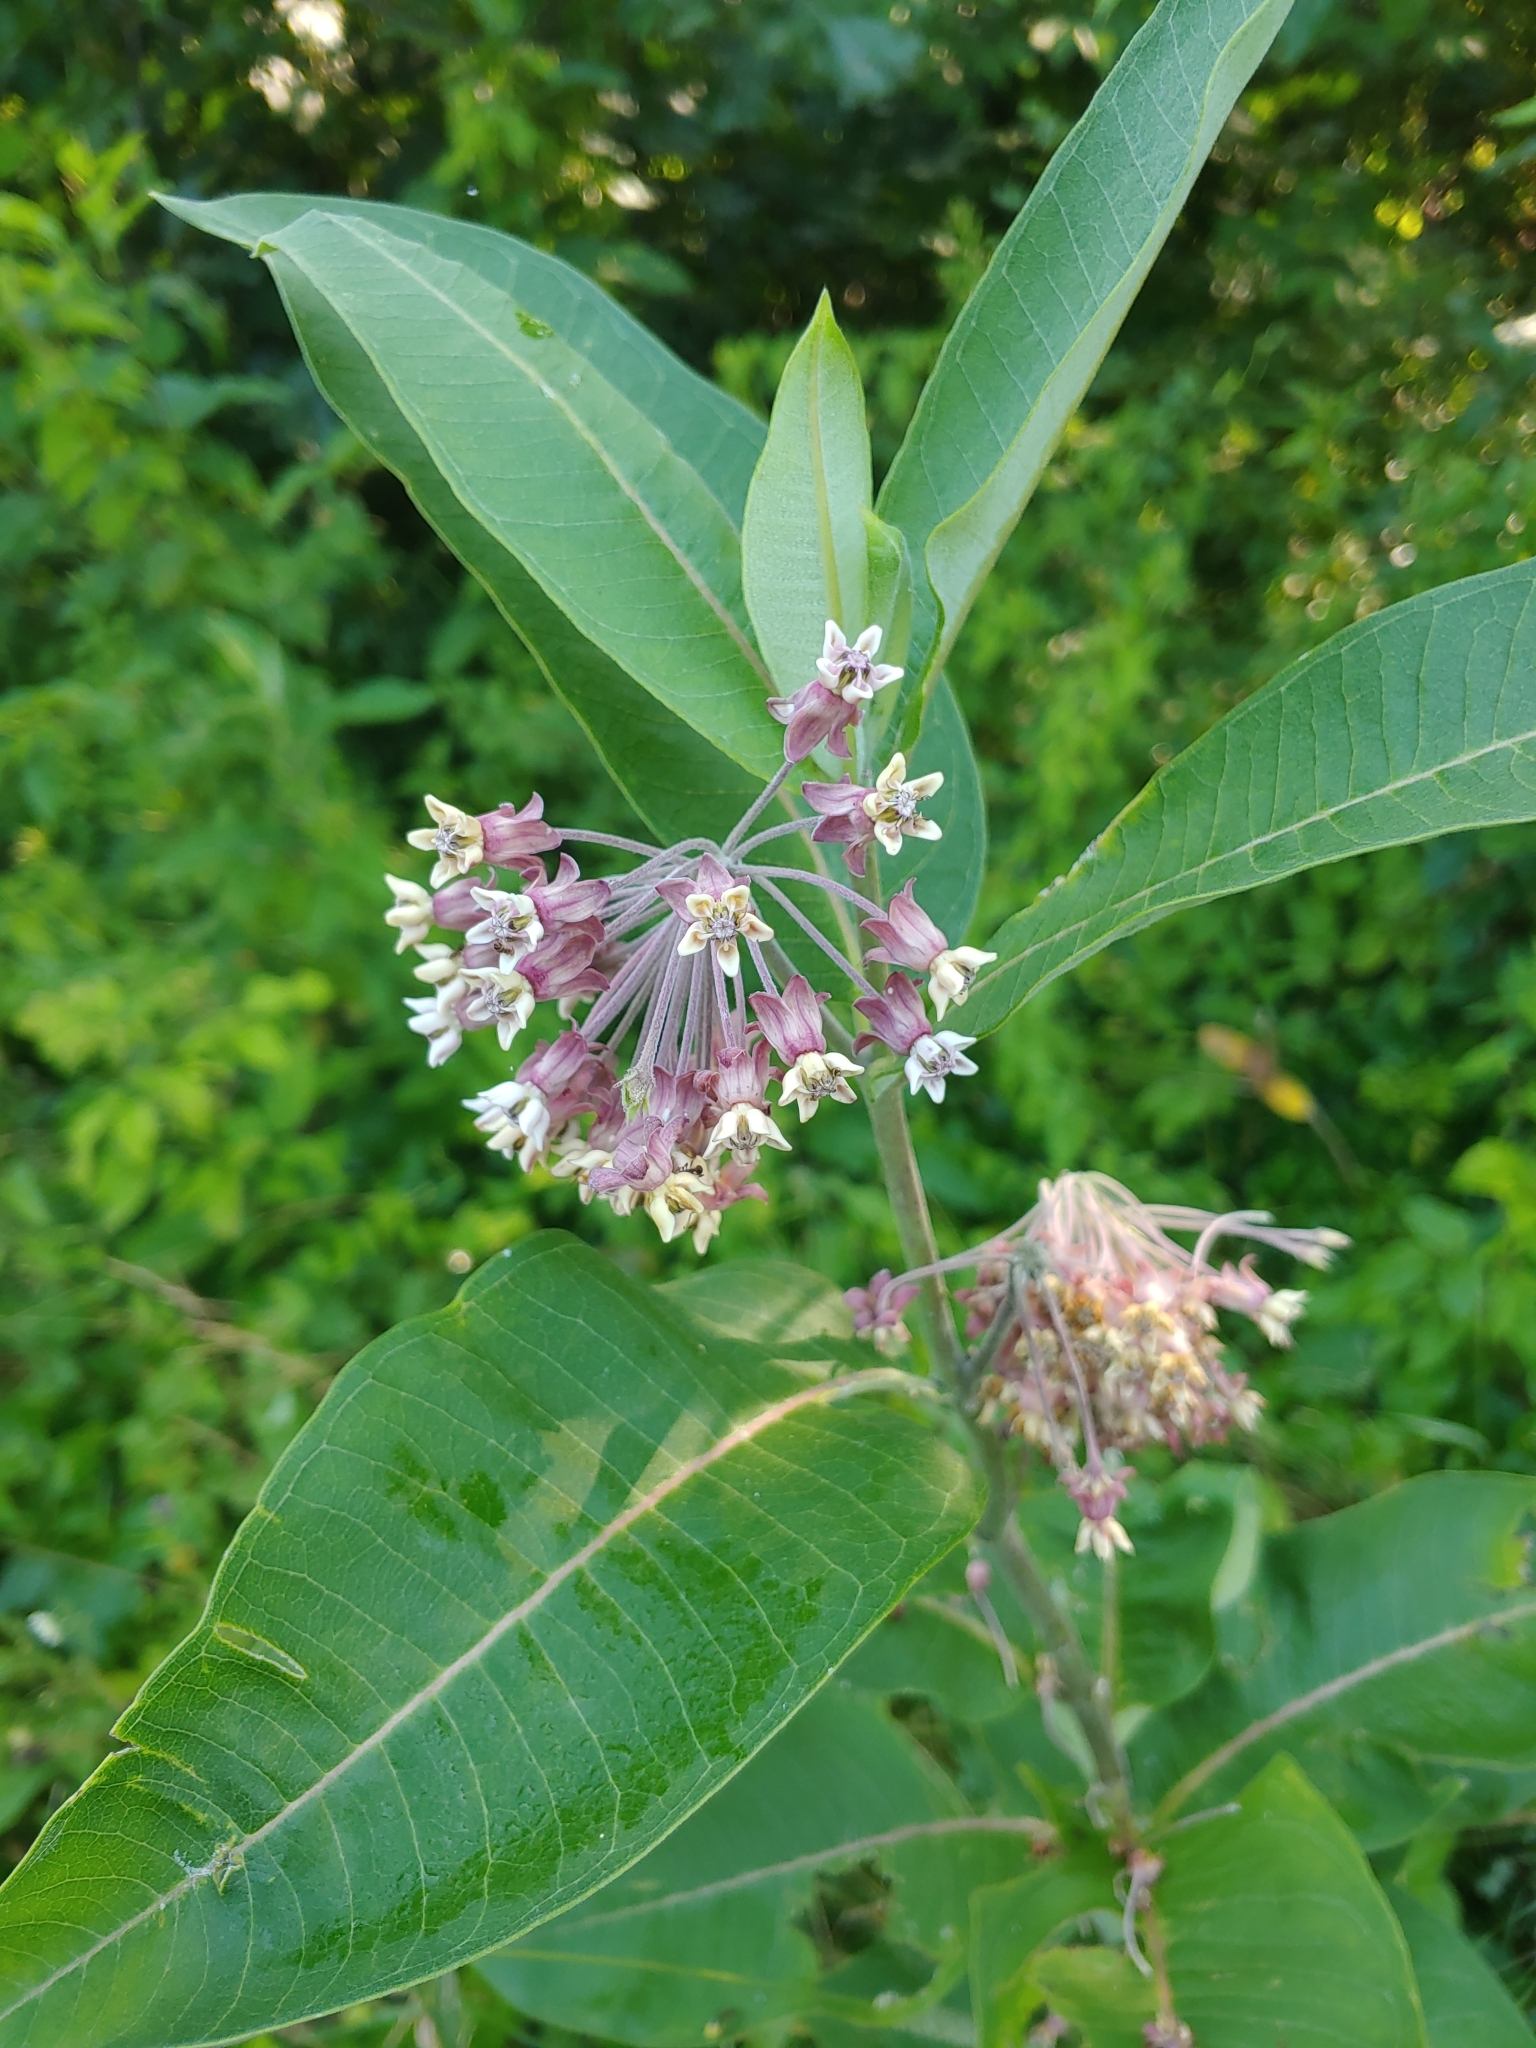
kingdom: Plantae
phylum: Tracheophyta
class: Magnoliopsida
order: Gentianales
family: Apocynaceae
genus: Asclepias
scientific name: Asclepias syriaca
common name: Common milkweed
